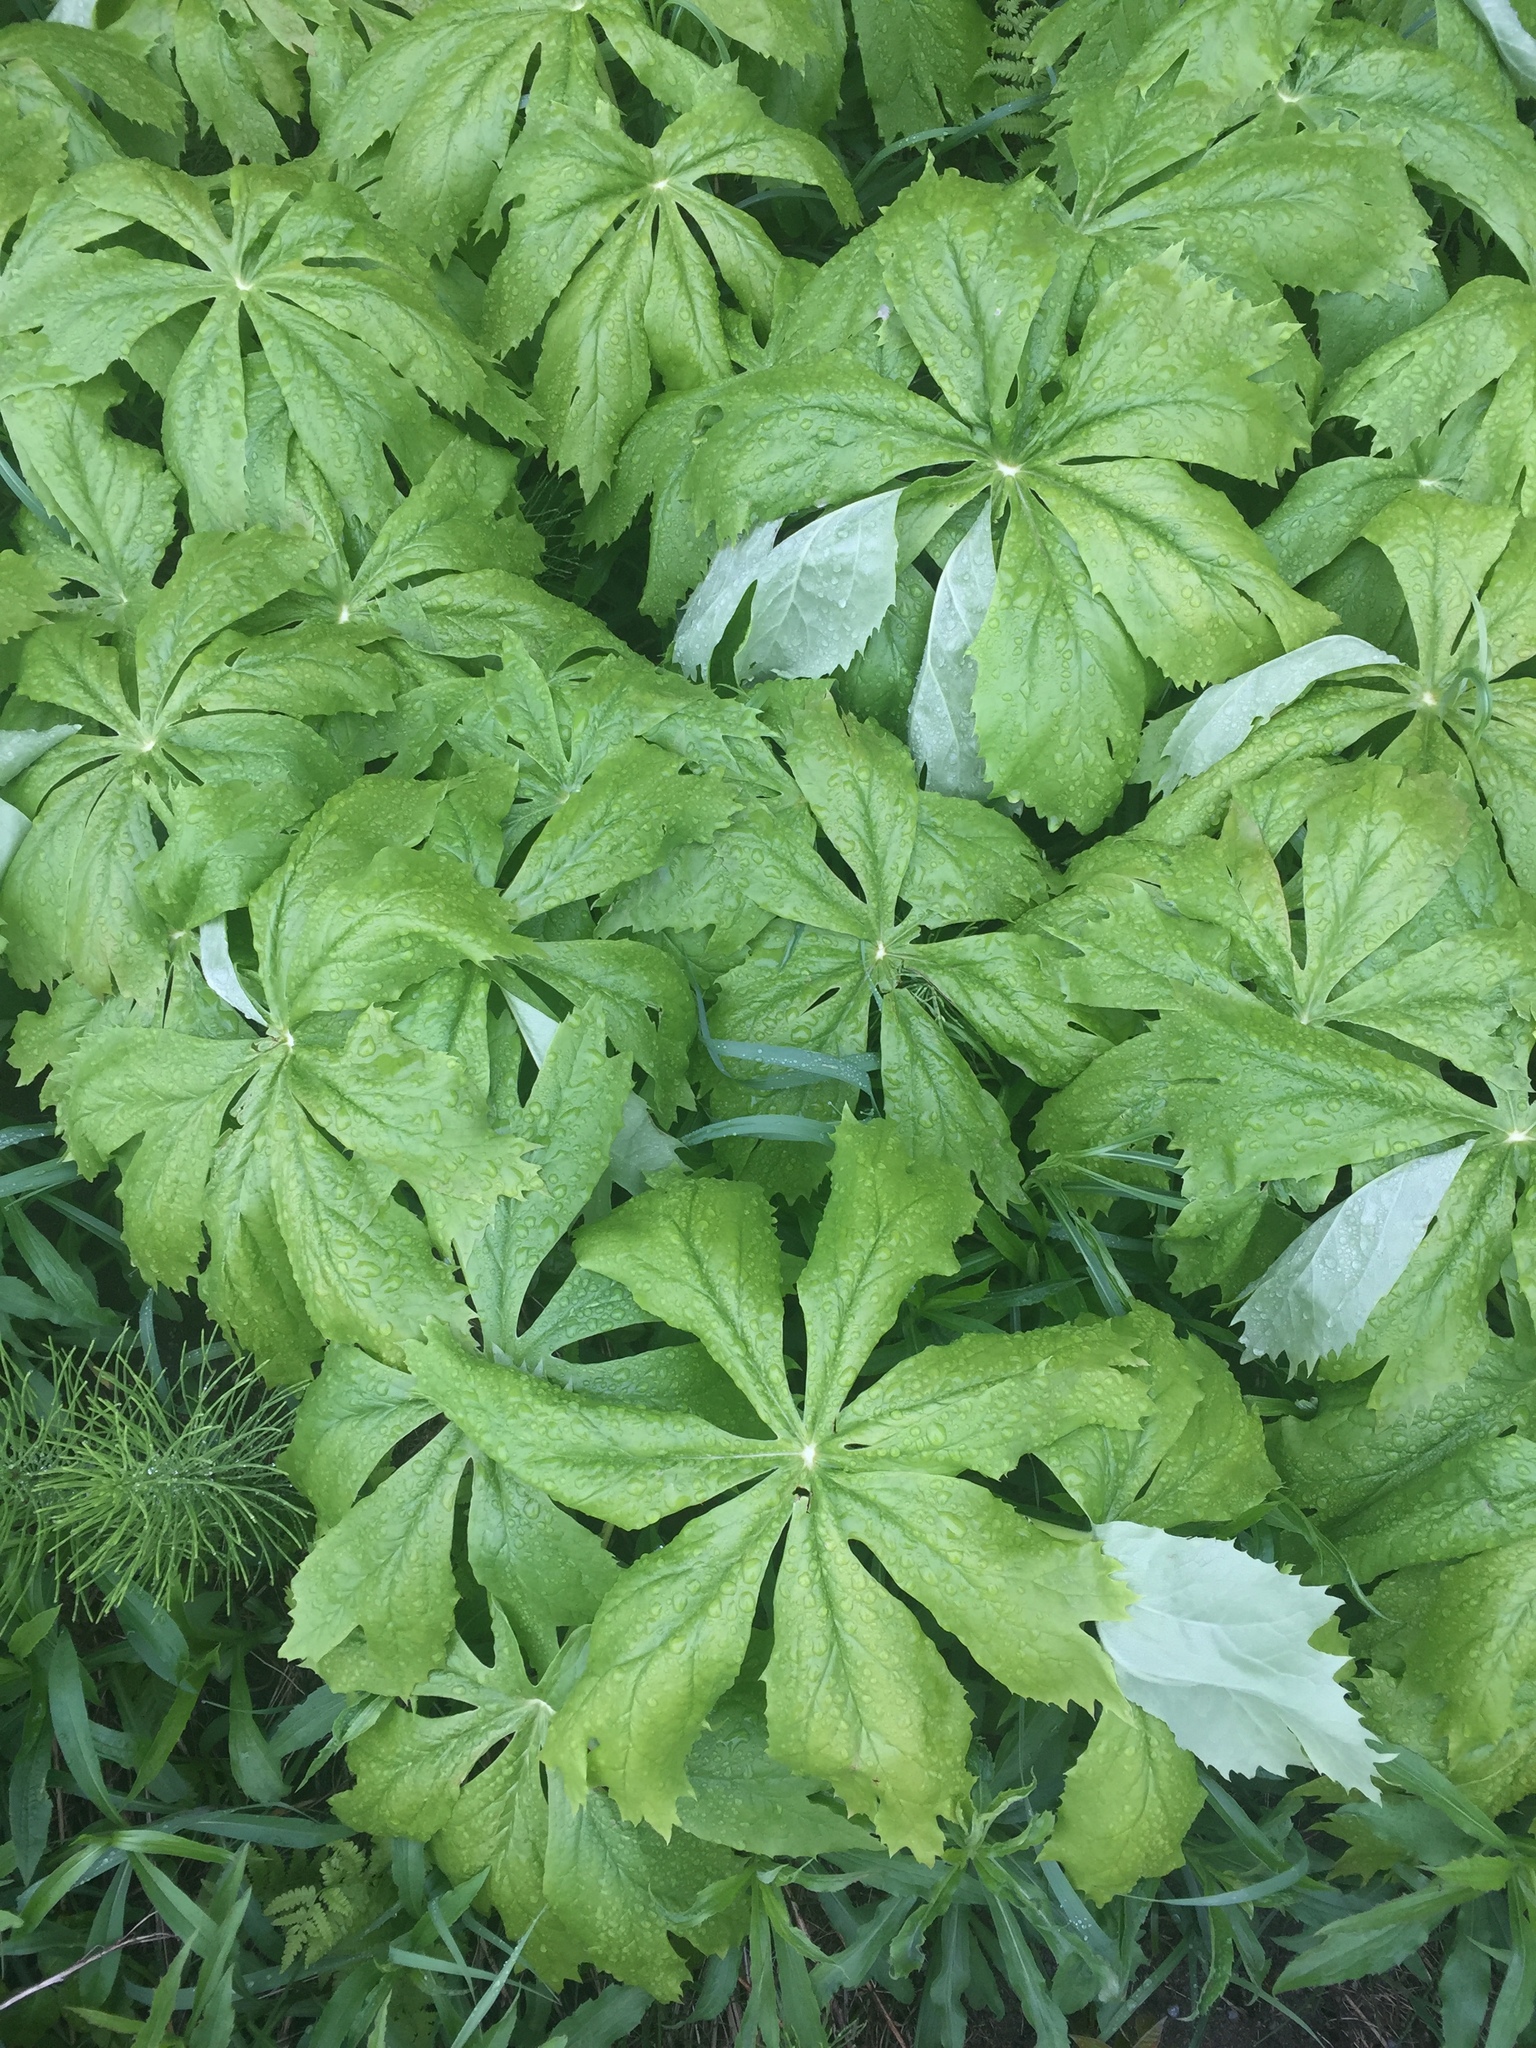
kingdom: Plantae
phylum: Tracheophyta
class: Magnoliopsida
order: Ranunculales
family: Berberidaceae
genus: Podophyllum
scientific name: Podophyllum peltatum
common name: Wild mandrake
